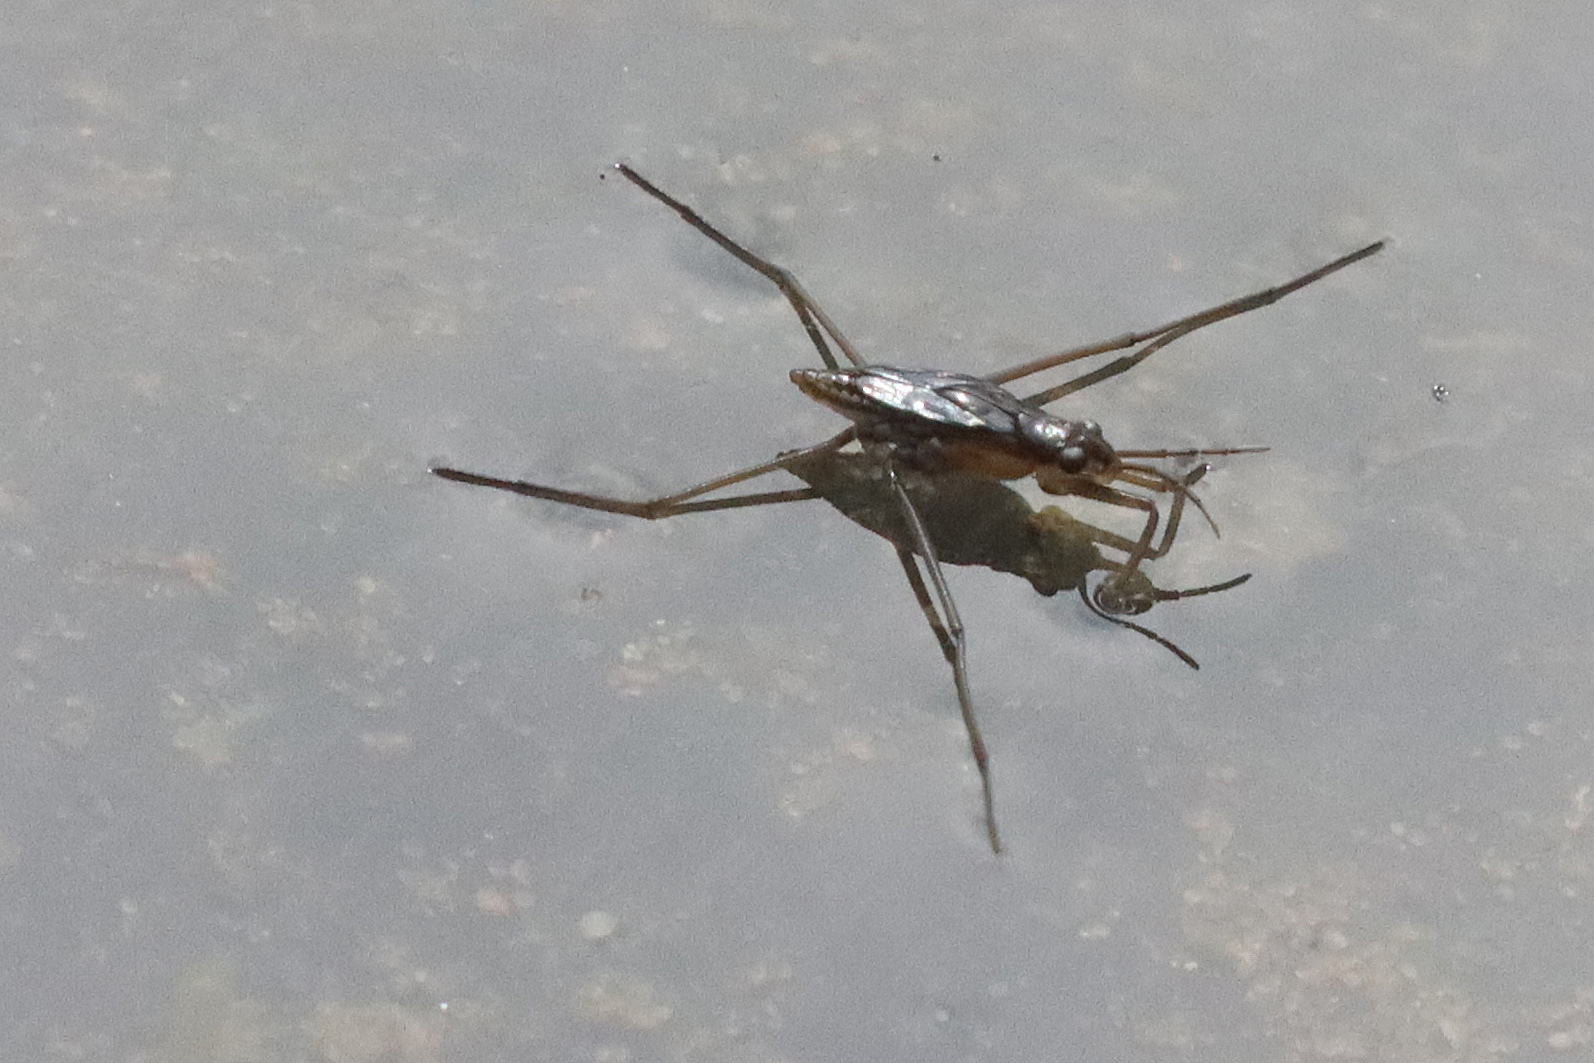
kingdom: Animalia
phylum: Arthropoda
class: Insecta
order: Hemiptera
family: Gerridae
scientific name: Gerridae
